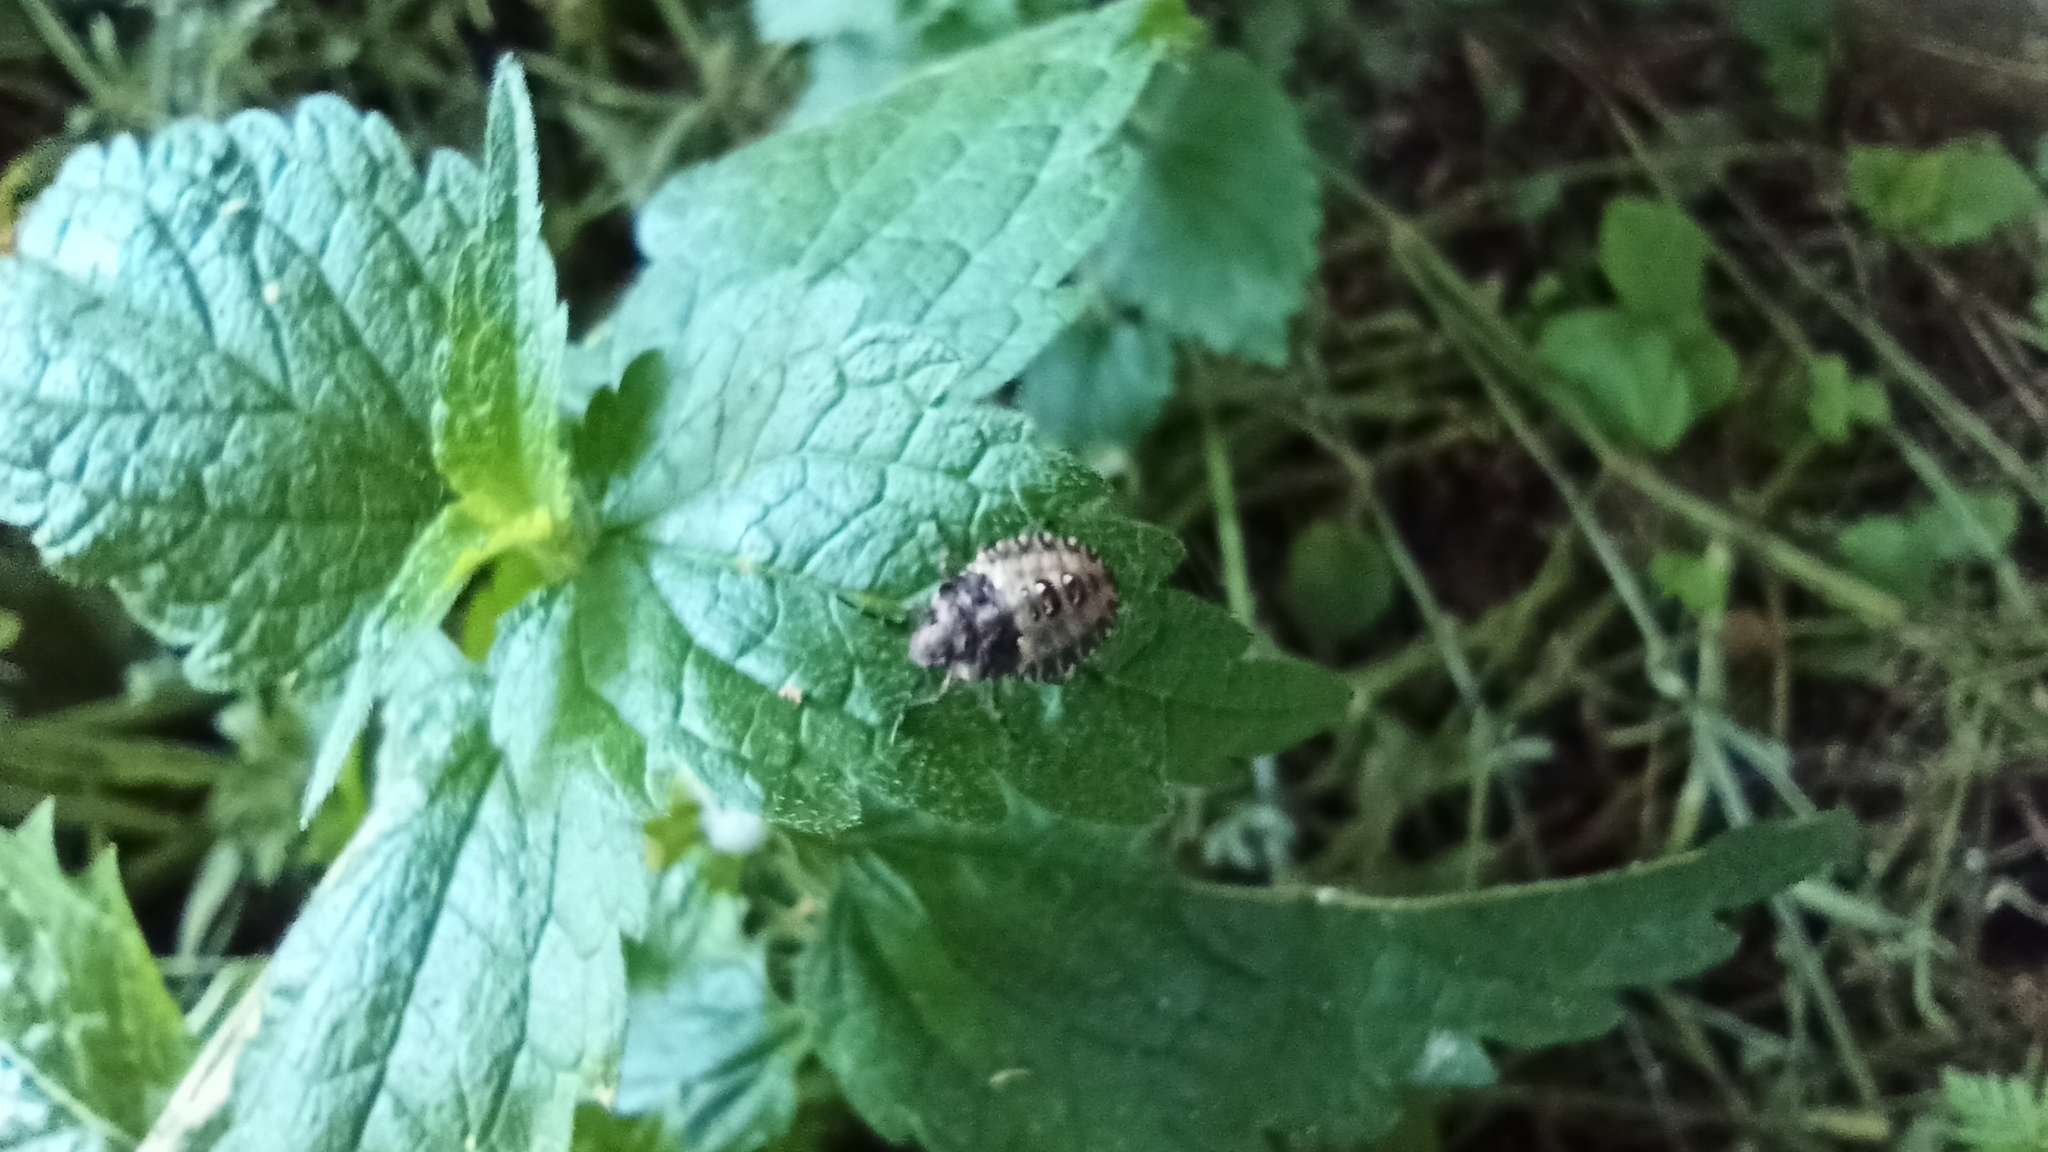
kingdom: Animalia
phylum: Arthropoda
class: Insecta
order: Hemiptera
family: Pentatomidae
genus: Pentatoma
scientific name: Pentatoma rufipes
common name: Forest bug
